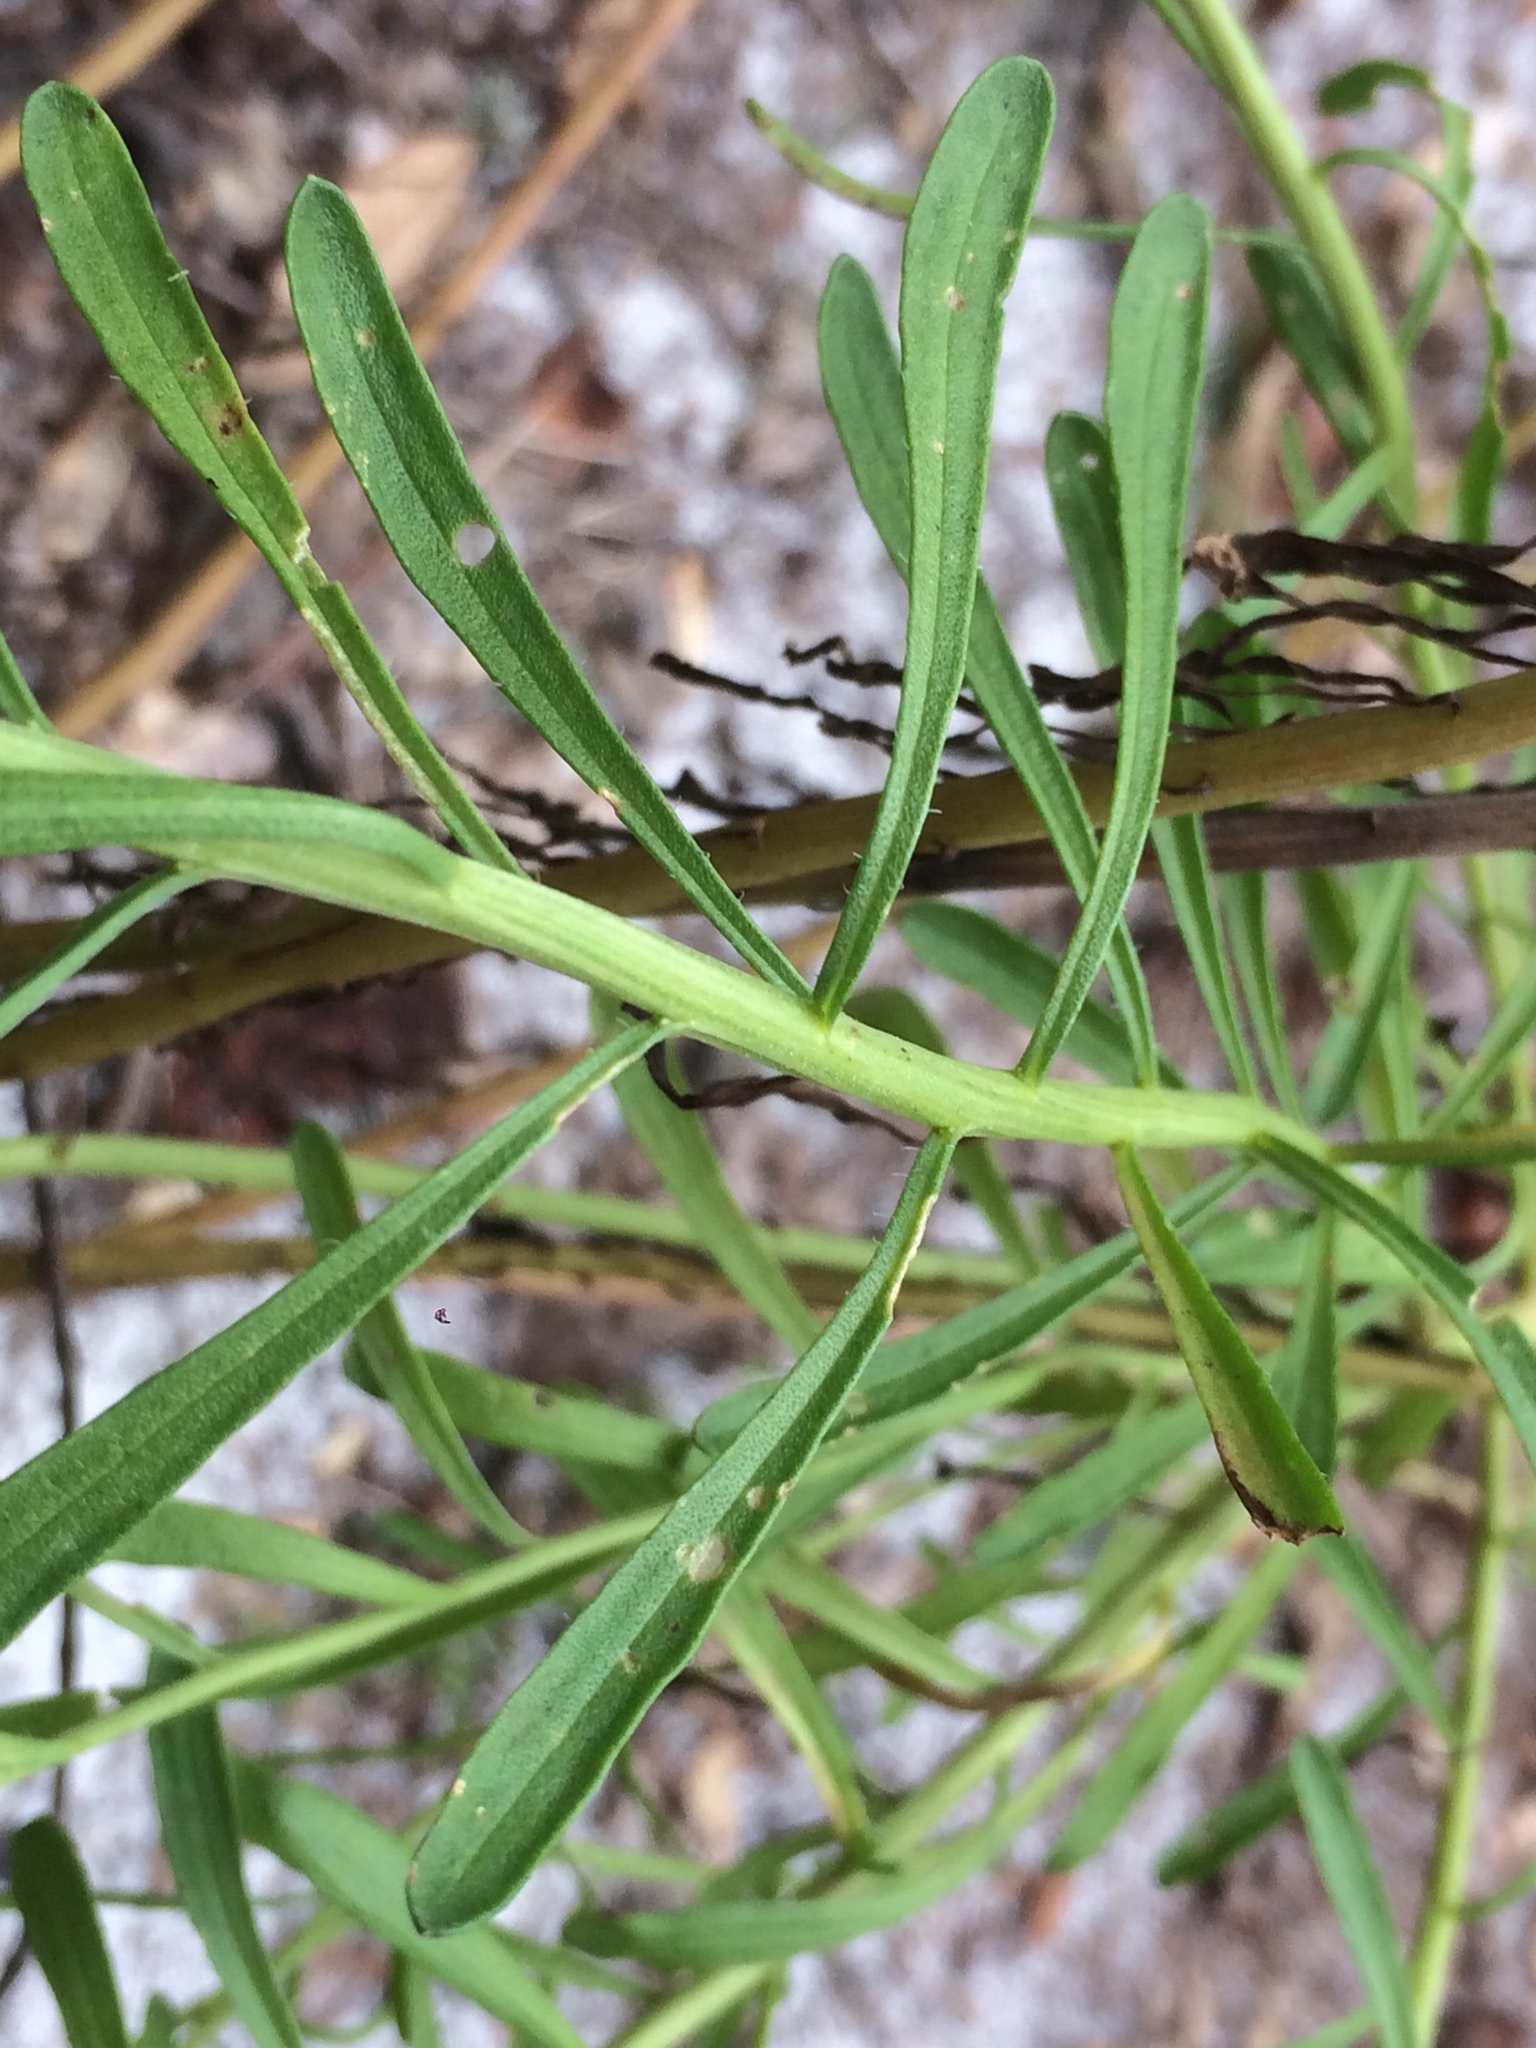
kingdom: Plantae
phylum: Tracheophyta
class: Magnoliopsida
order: Asterales
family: Asteraceae
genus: Helenium
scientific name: Helenium amarum
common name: Bitter sneezeweed
